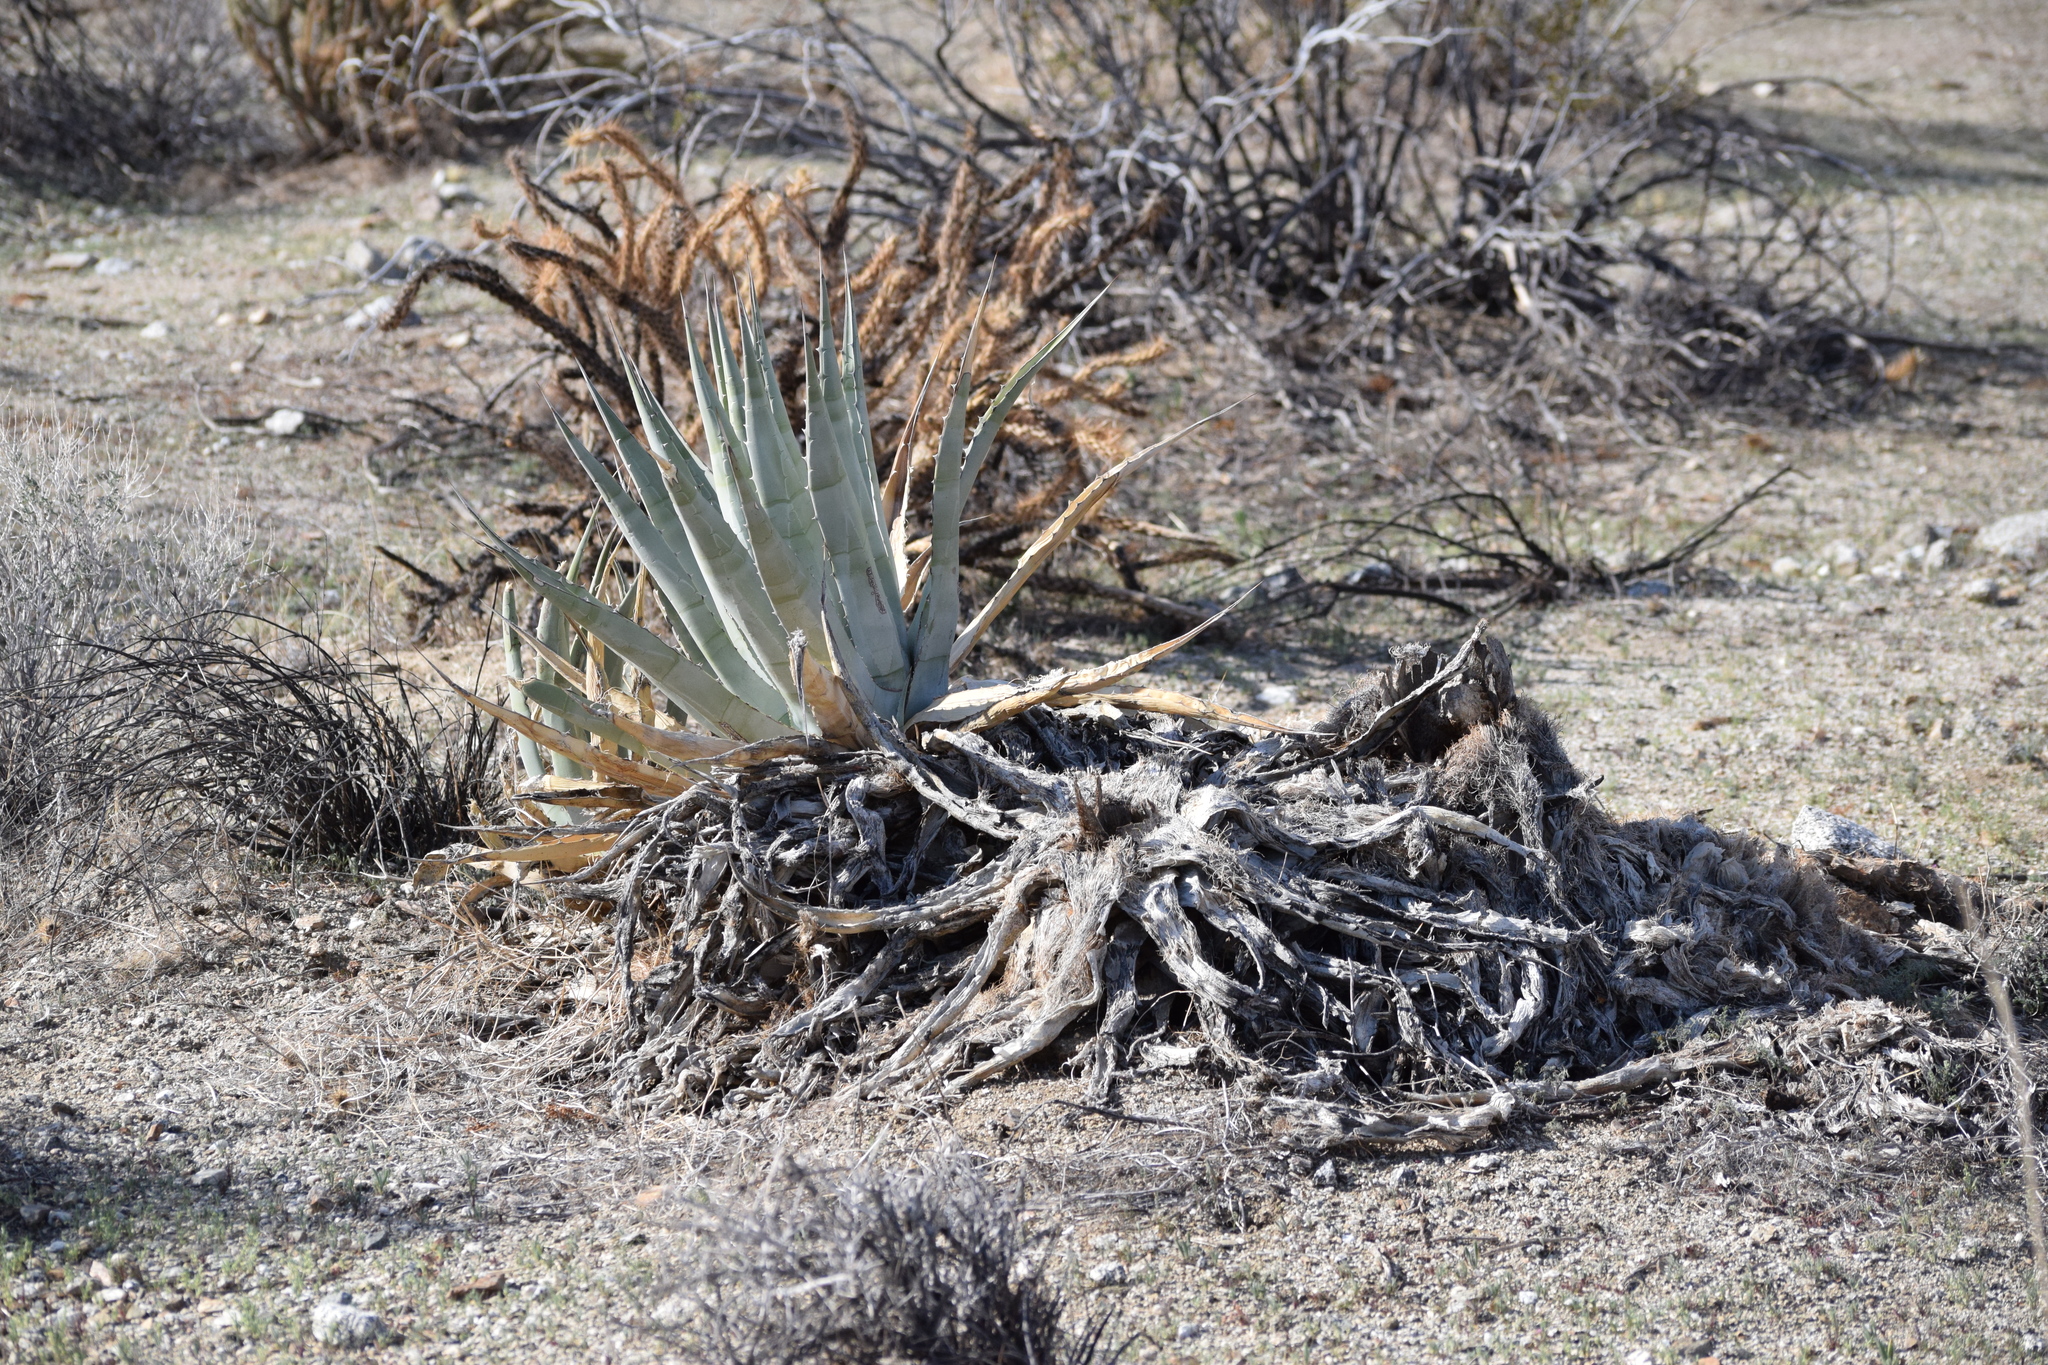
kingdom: Plantae
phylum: Tracheophyta
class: Liliopsida
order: Asparagales
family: Asparagaceae
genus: Agave
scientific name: Agave deserti
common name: Desert agave
